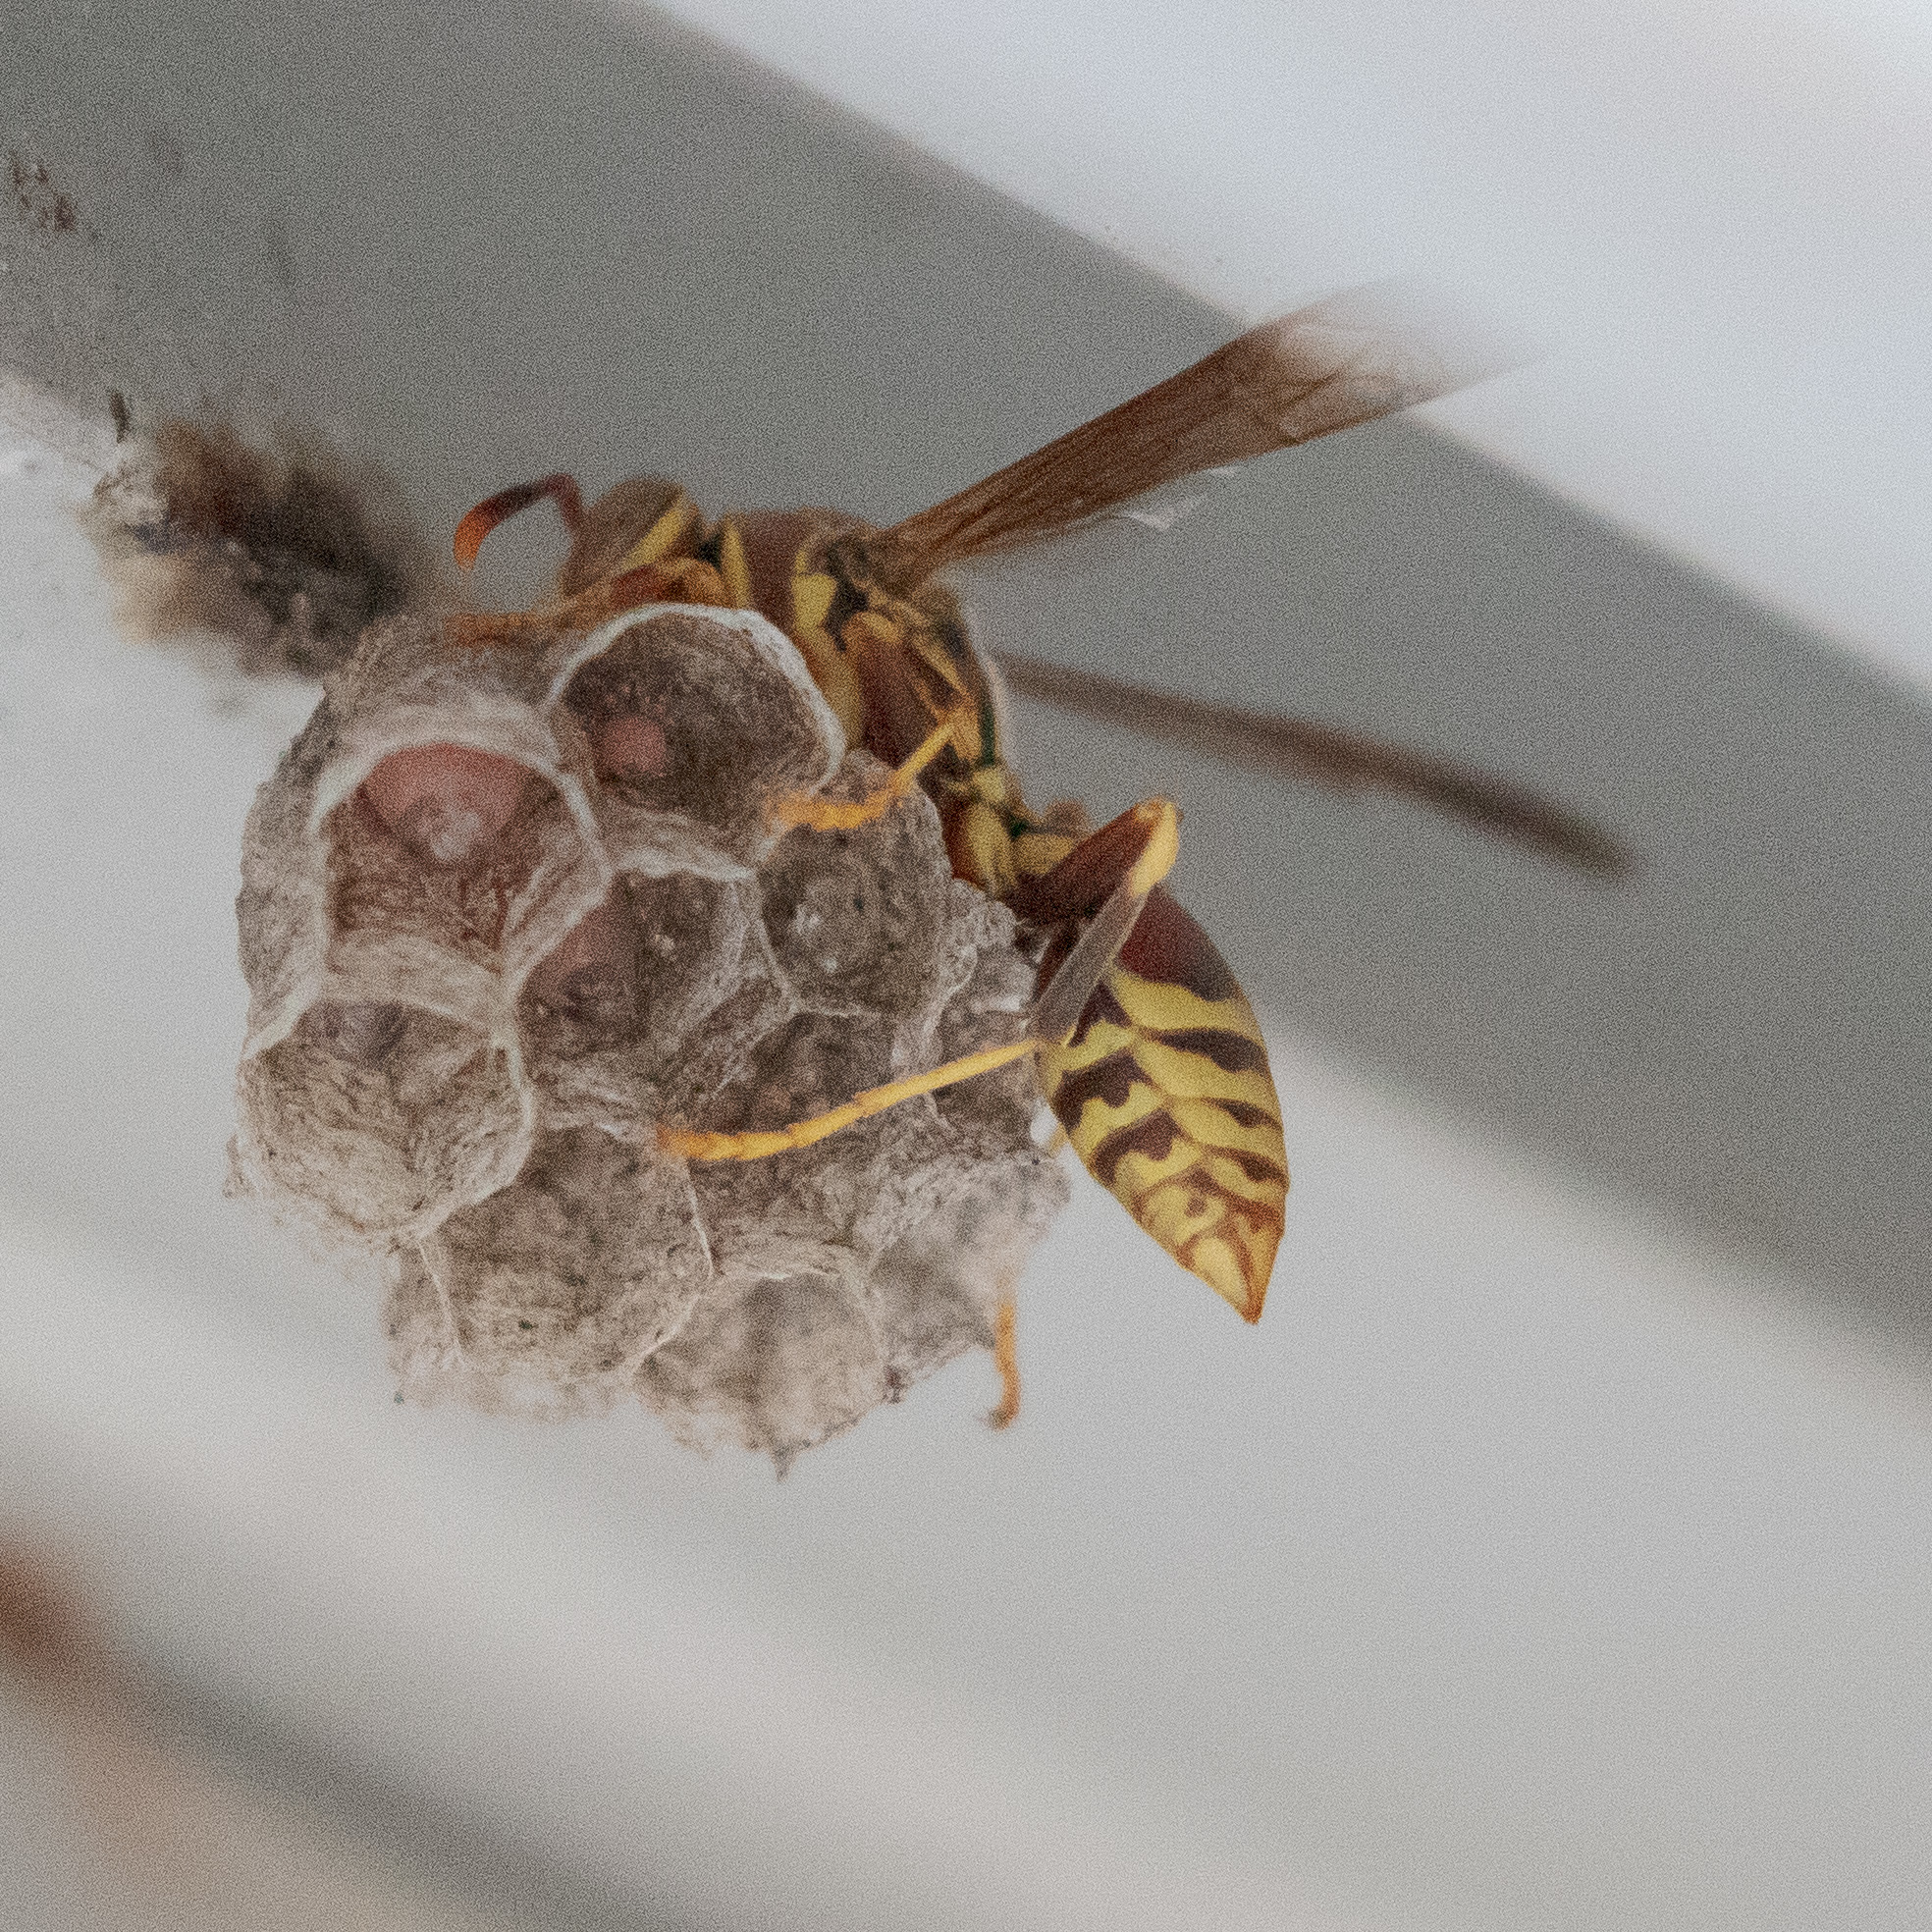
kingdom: Animalia
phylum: Arthropoda
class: Insecta
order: Hymenoptera
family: Eumenidae
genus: Polistes
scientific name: Polistes exclamans
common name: Paper wasp
